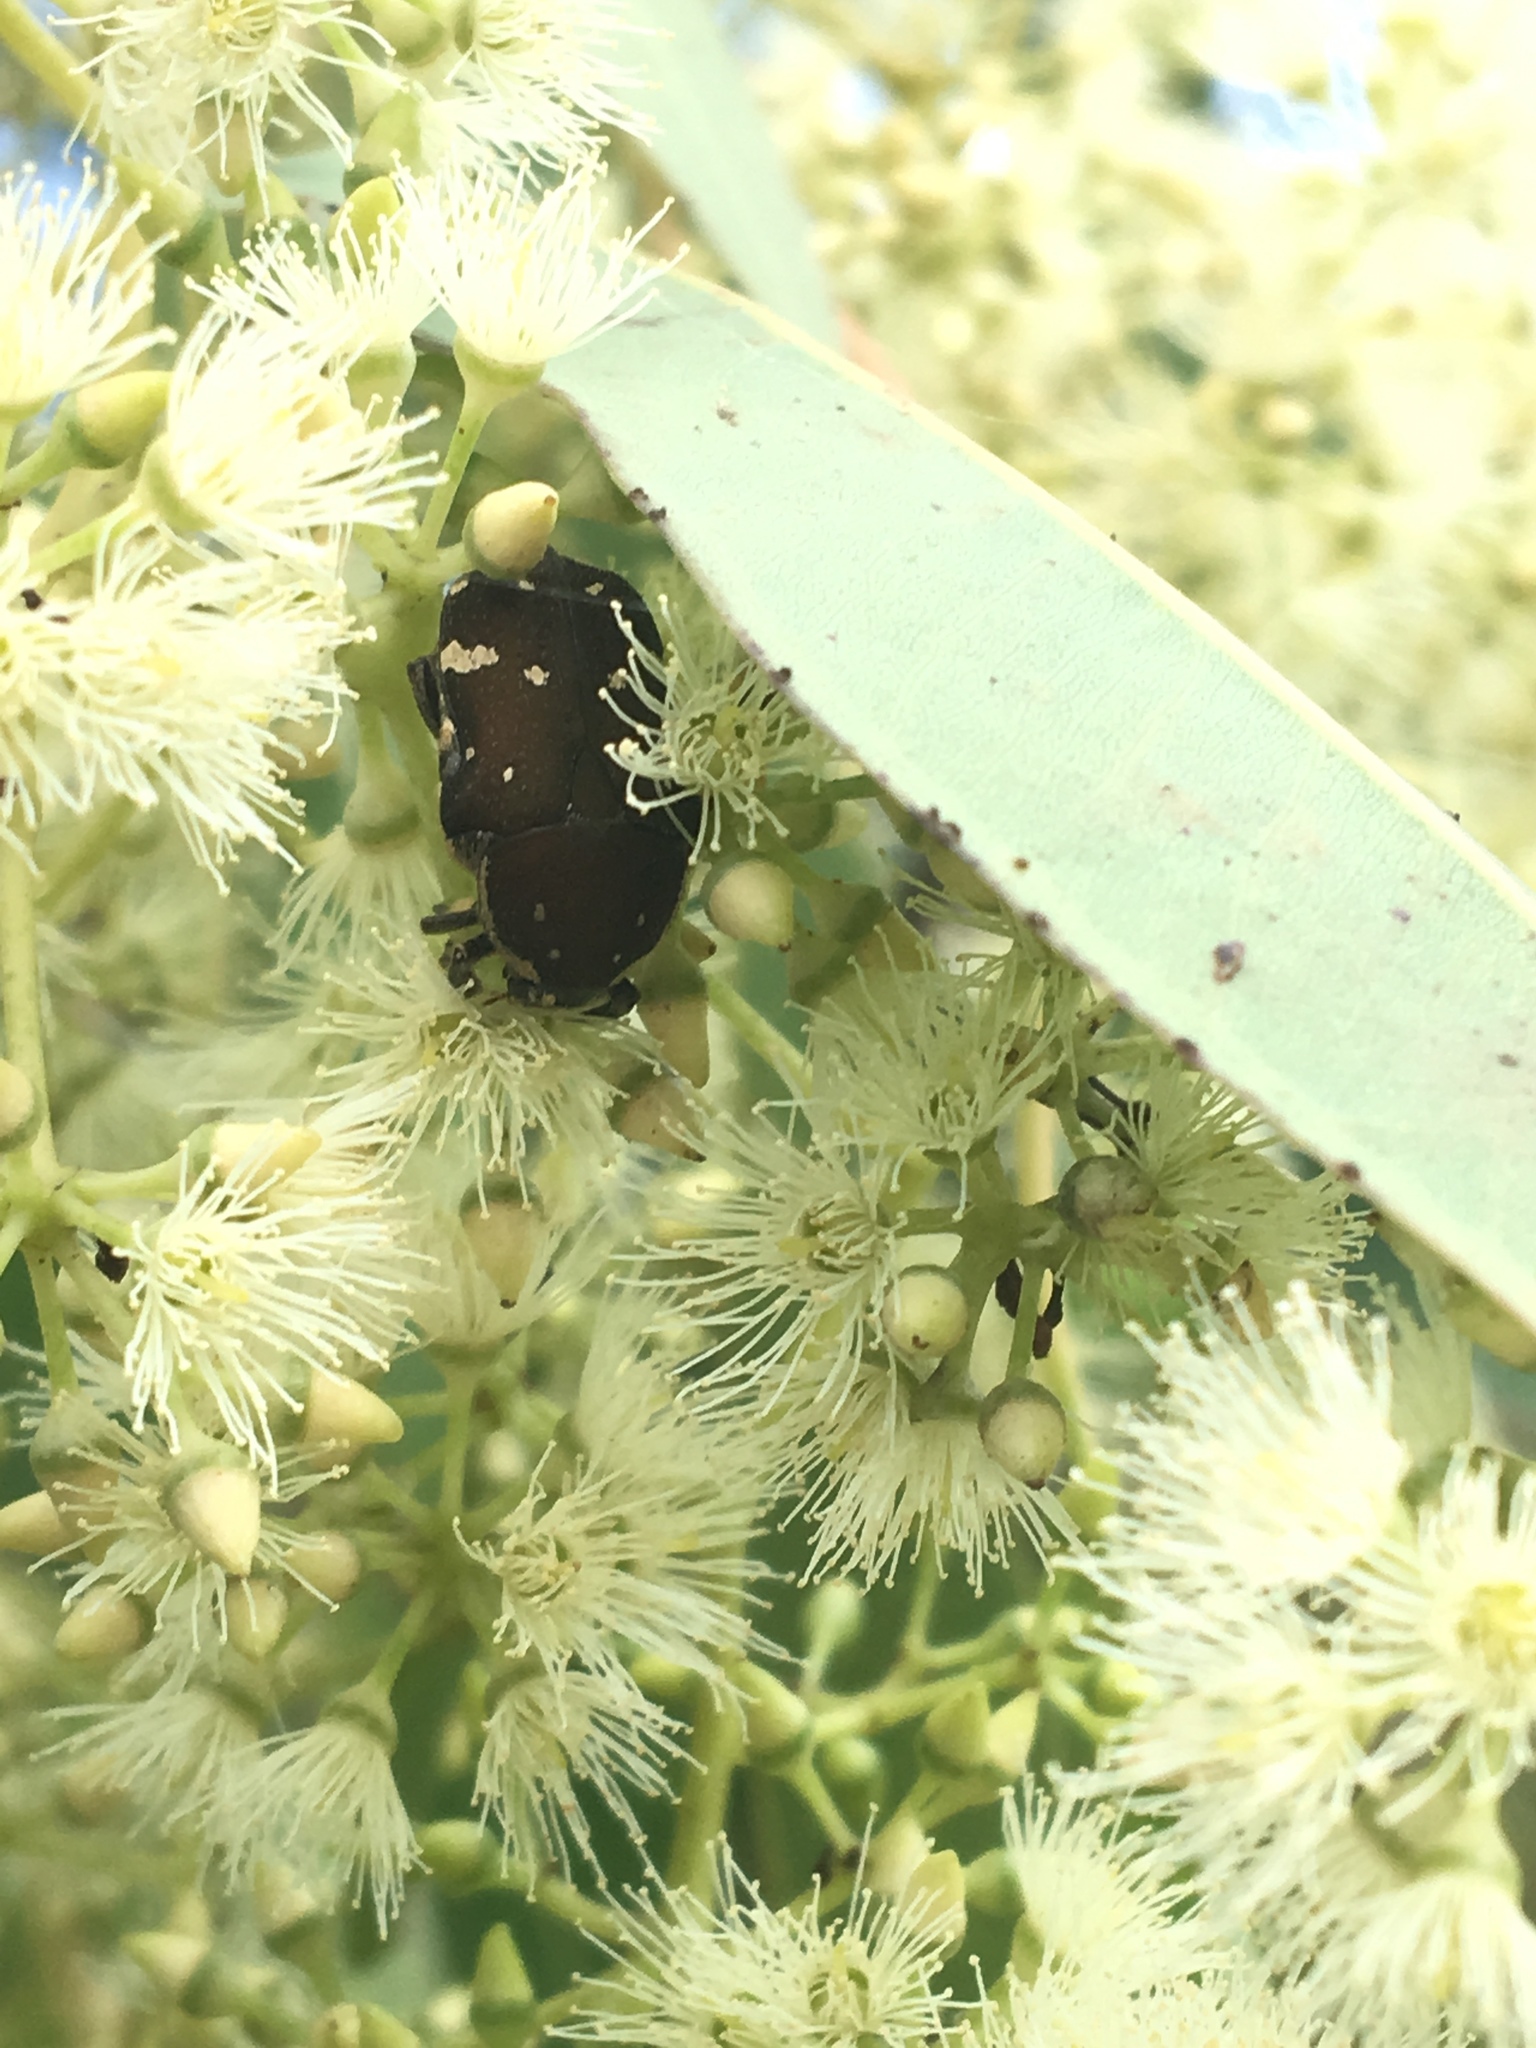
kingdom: Animalia
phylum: Arthropoda
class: Insecta
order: Coleoptera
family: Scarabaeidae
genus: Glycyphana
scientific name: Glycyphana stolata
